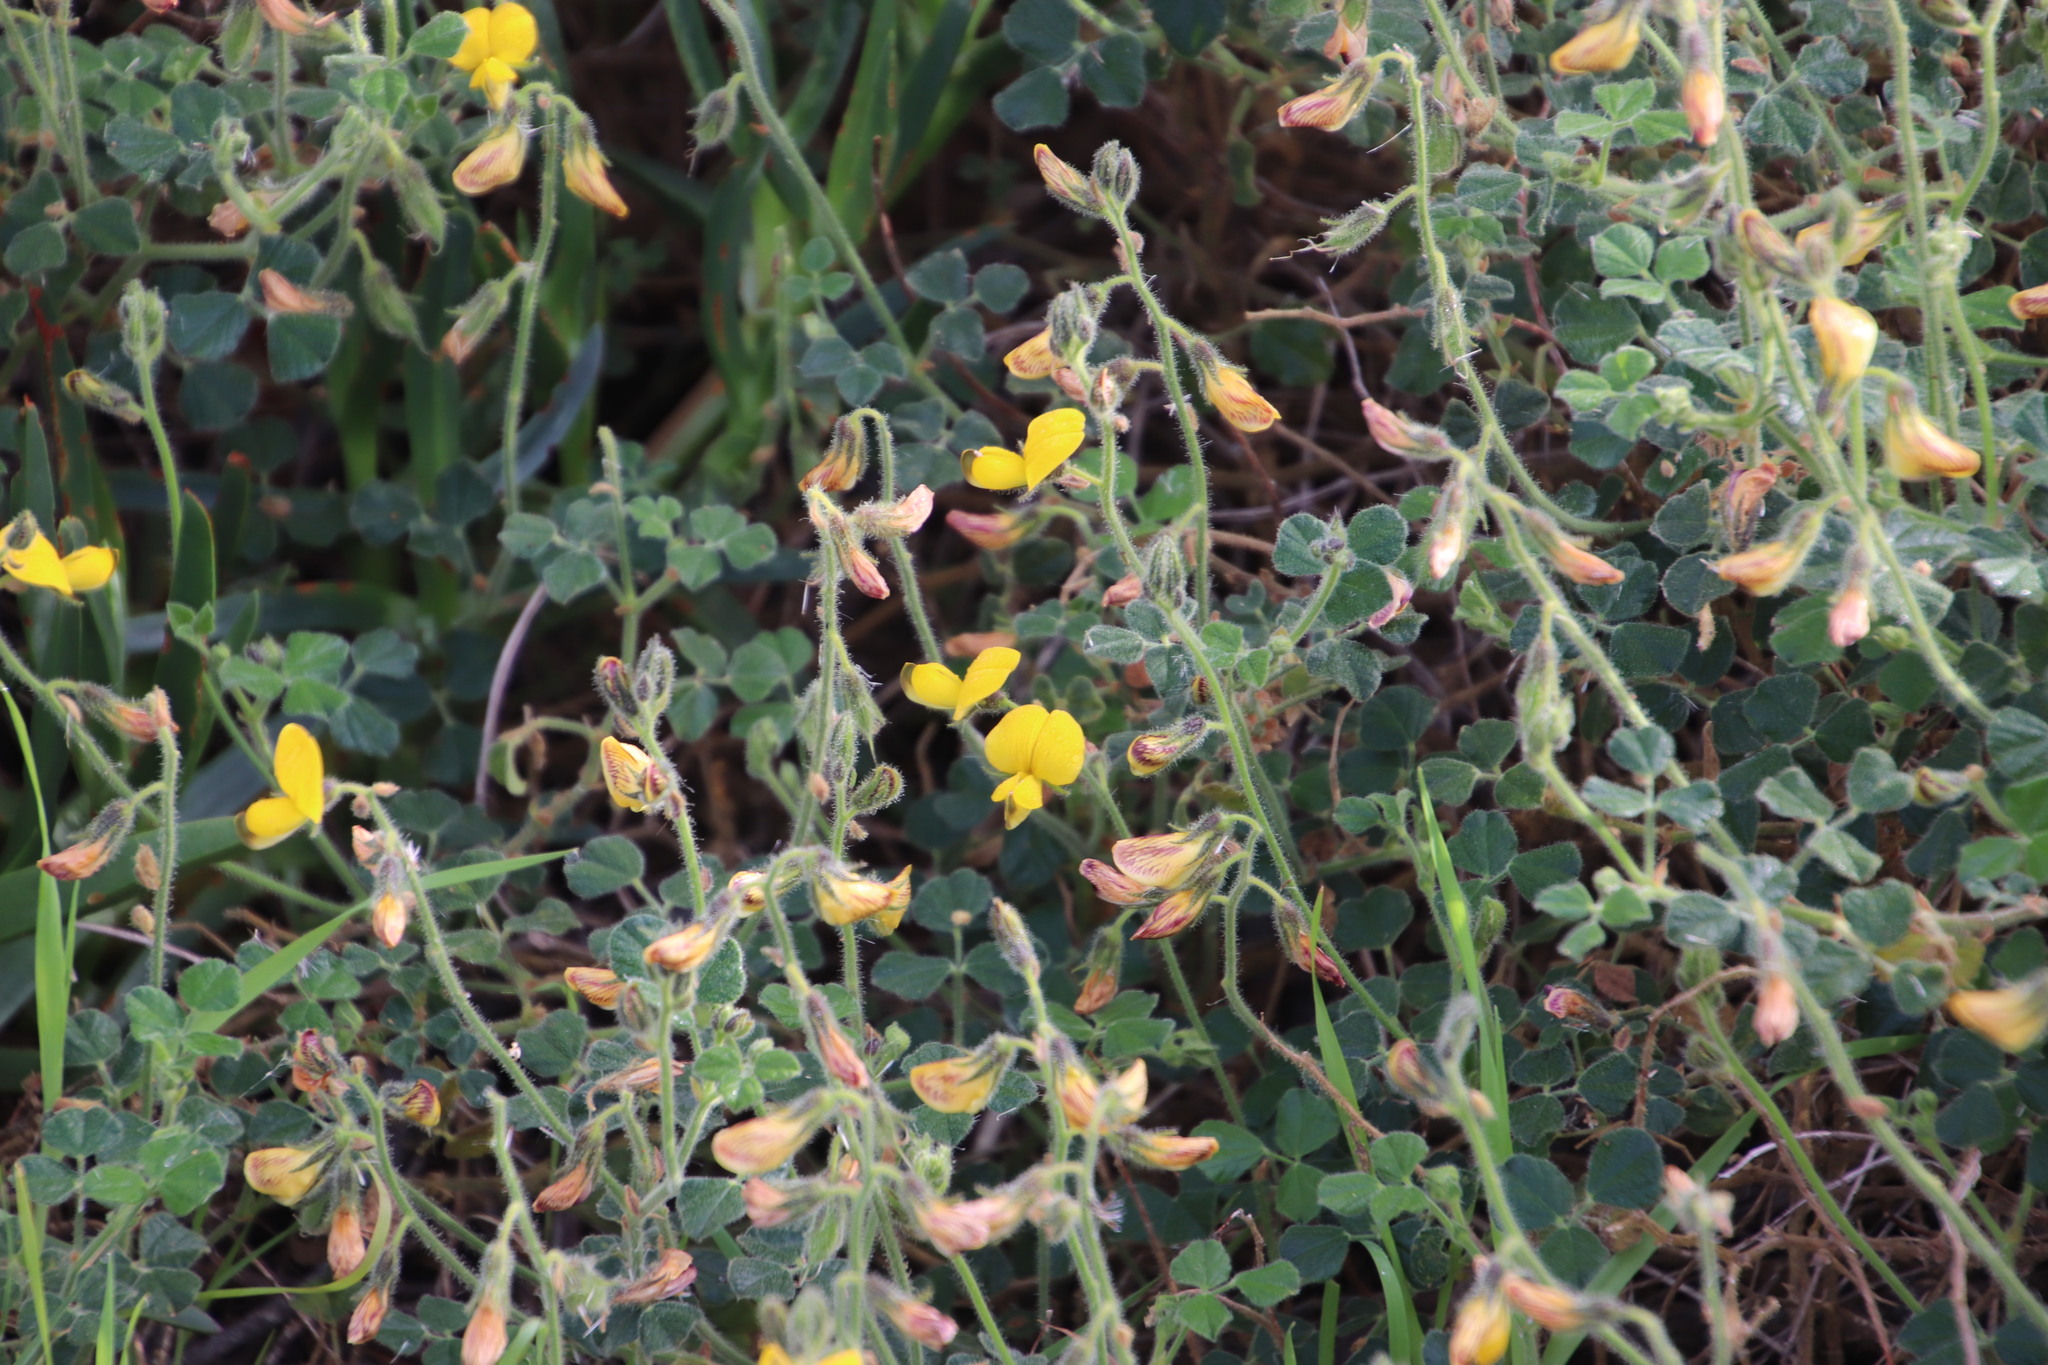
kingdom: Plantae
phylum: Tracheophyta
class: Magnoliopsida
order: Fabales
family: Fabaceae
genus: Bolusafra
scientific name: Bolusafra bituminosa
